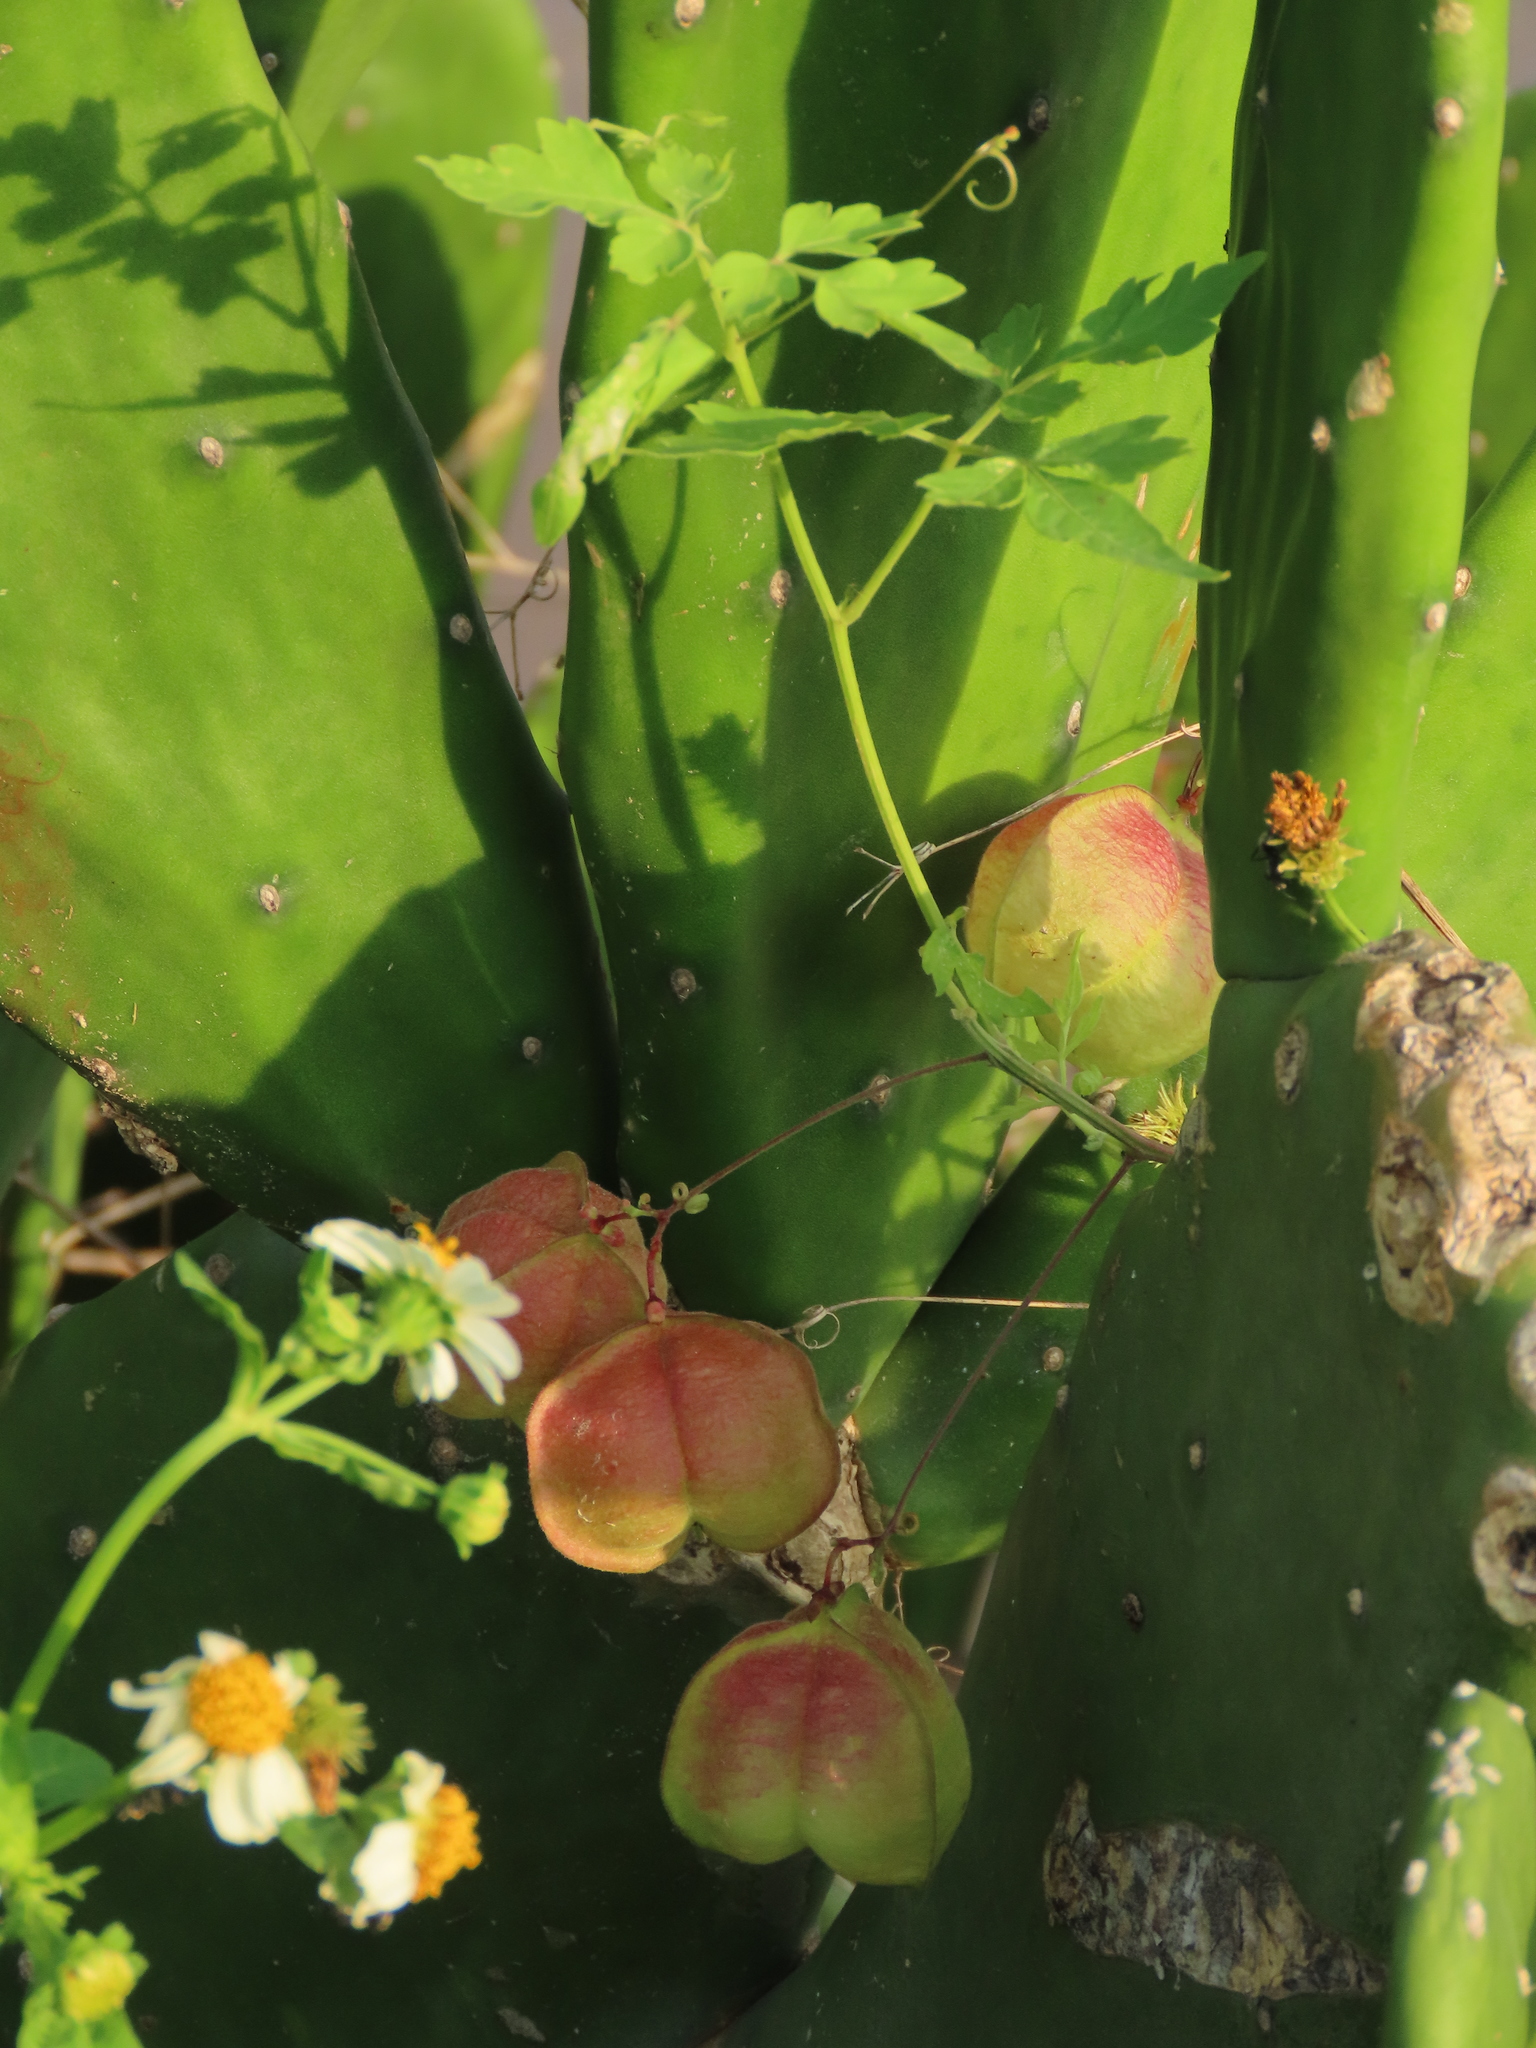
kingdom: Plantae
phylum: Tracheophyta
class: Magnoliopsida
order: Sapindales
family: Sapindaceae
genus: Cardiospermum
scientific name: Cardiospermum halicacabum
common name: Balloon vine
